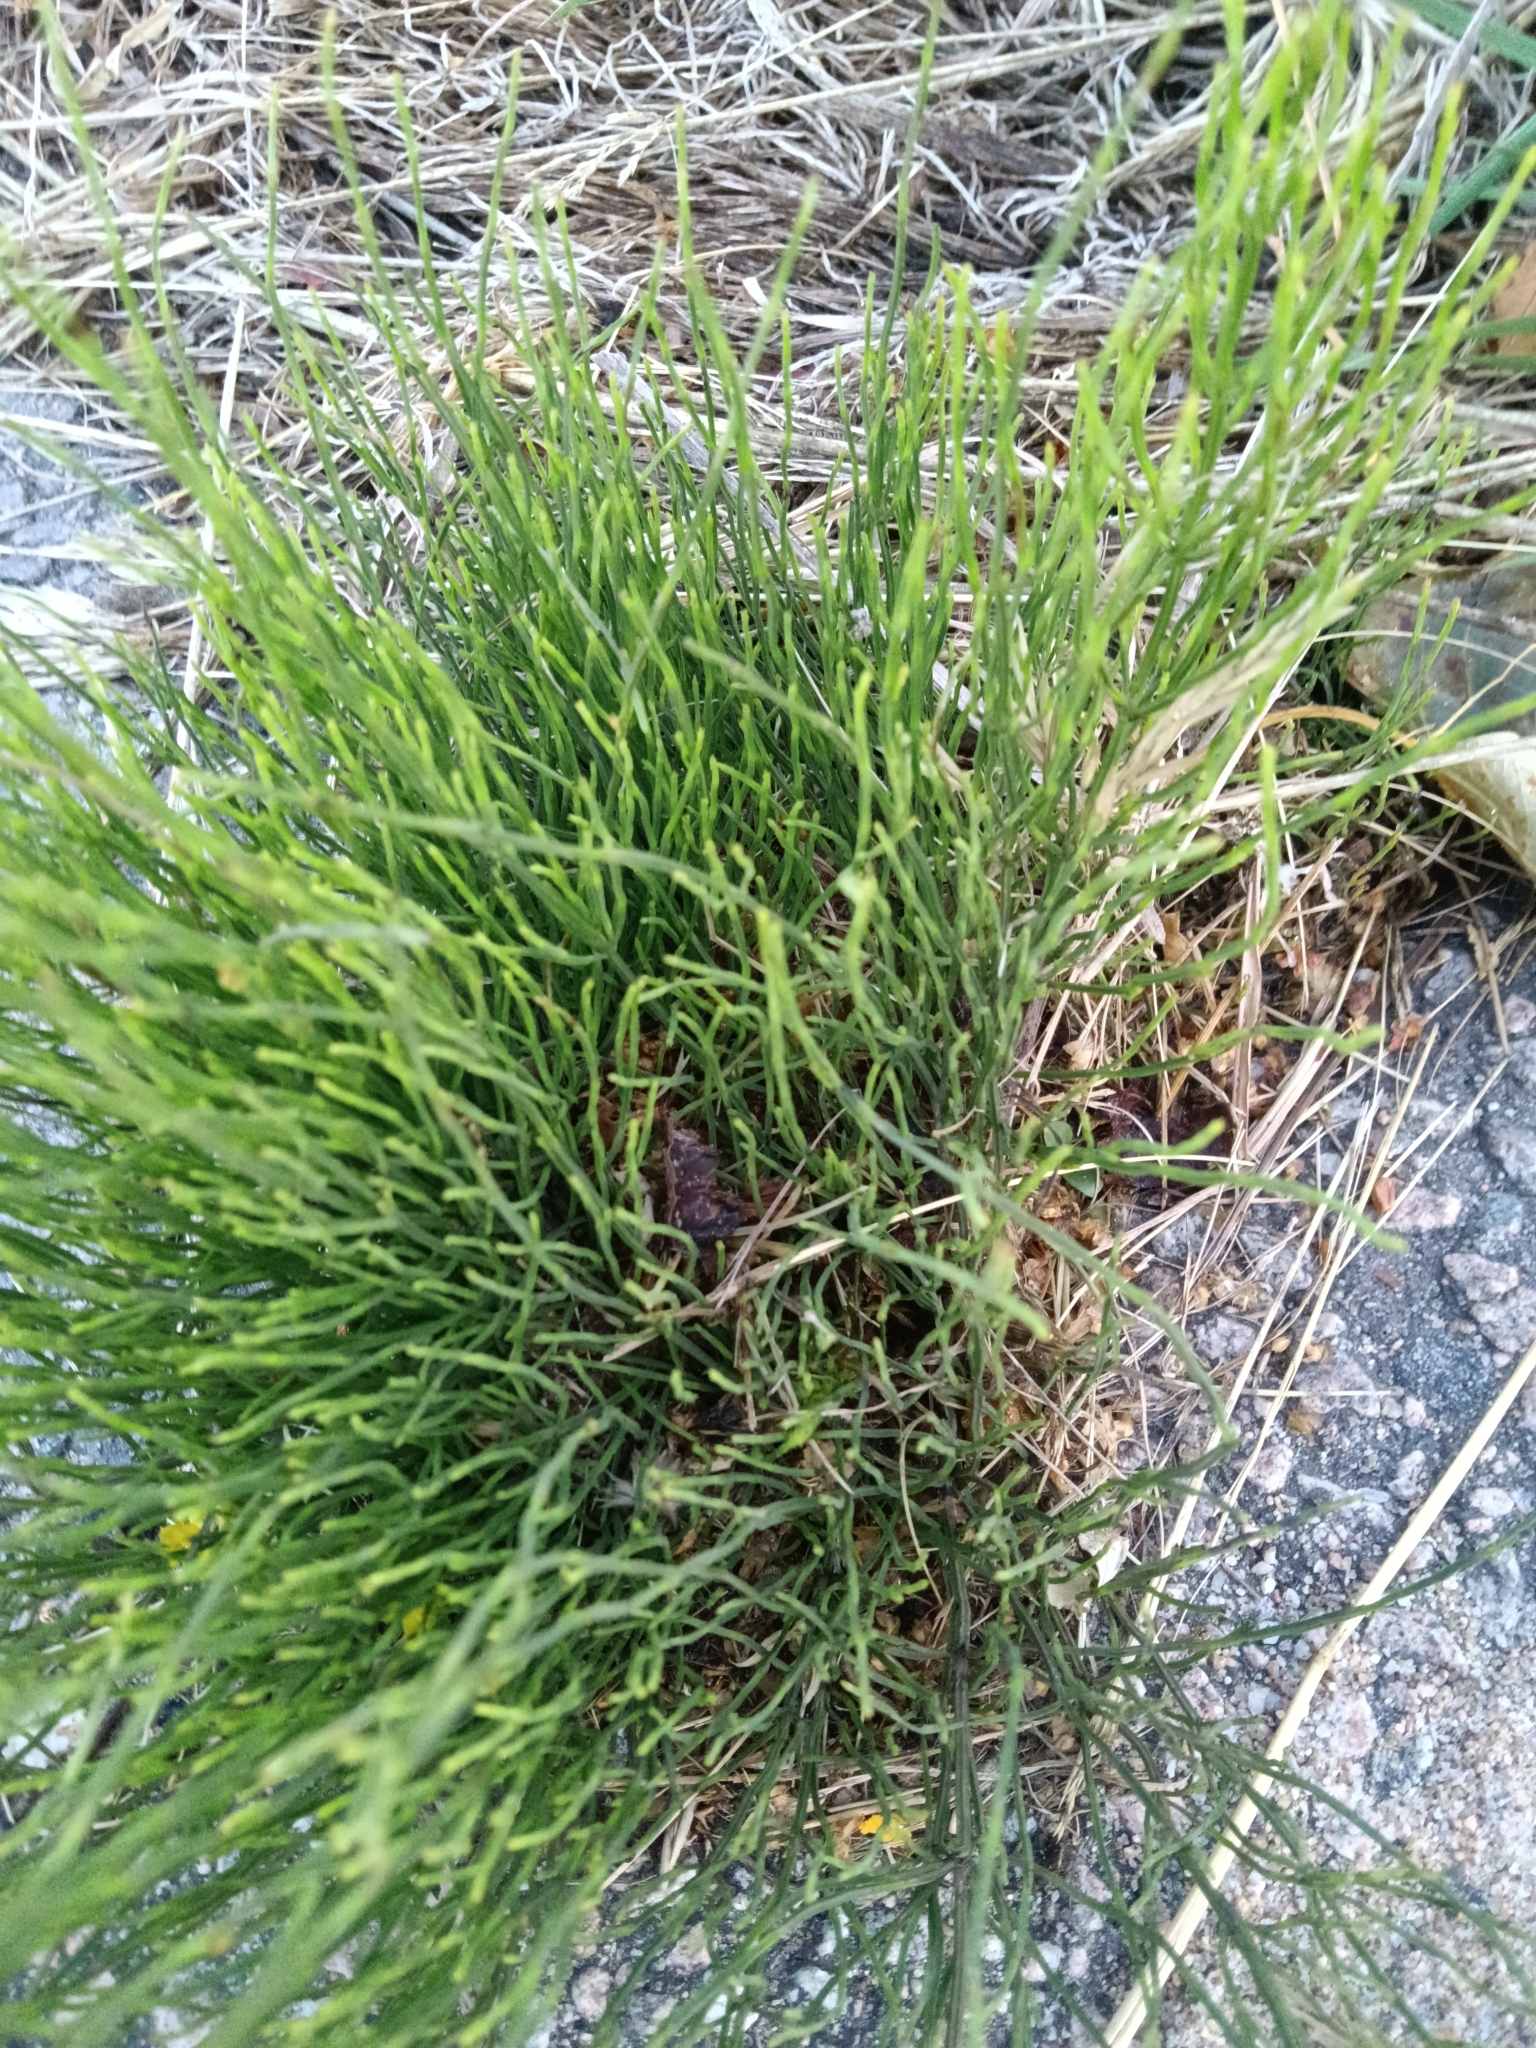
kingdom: Plantae
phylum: Tracheophyta
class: Polypodiopsida
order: Equisetales
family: Equisetaceae
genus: Equisetum
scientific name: Equisetum arvense
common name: Field horsetail
